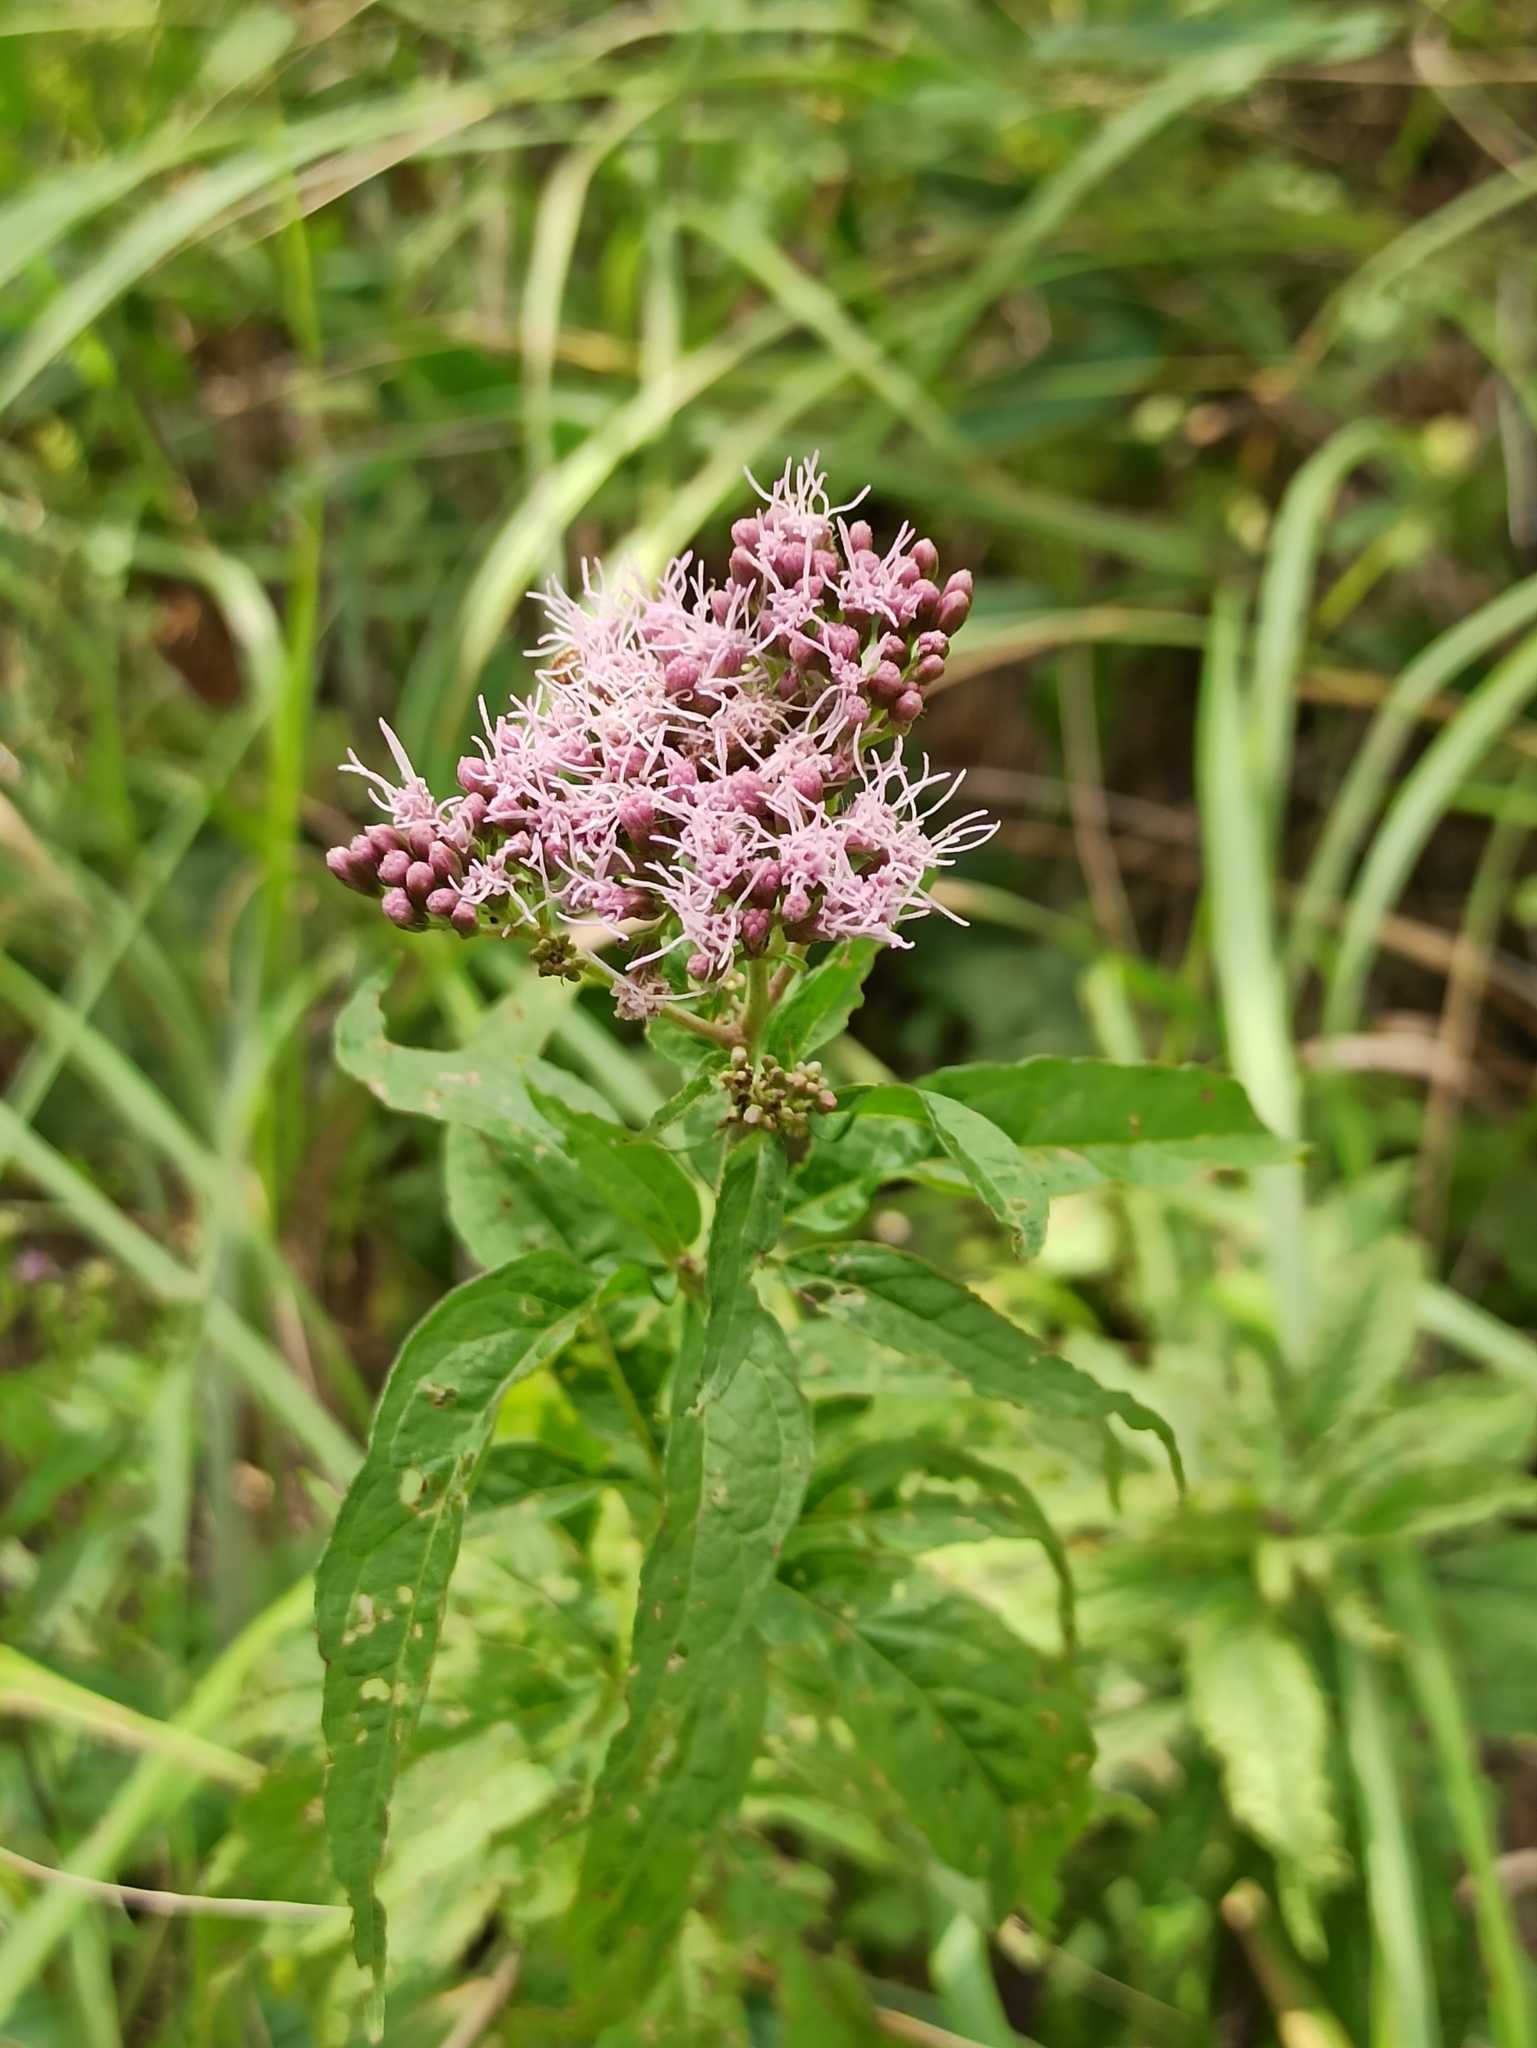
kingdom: Plantae
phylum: Tracheophyta
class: Magnoliopsida
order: Asterales
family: Asteraceae
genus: Eupatorium
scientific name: Eupatorium cannabinum
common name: Hemp-agrimony
